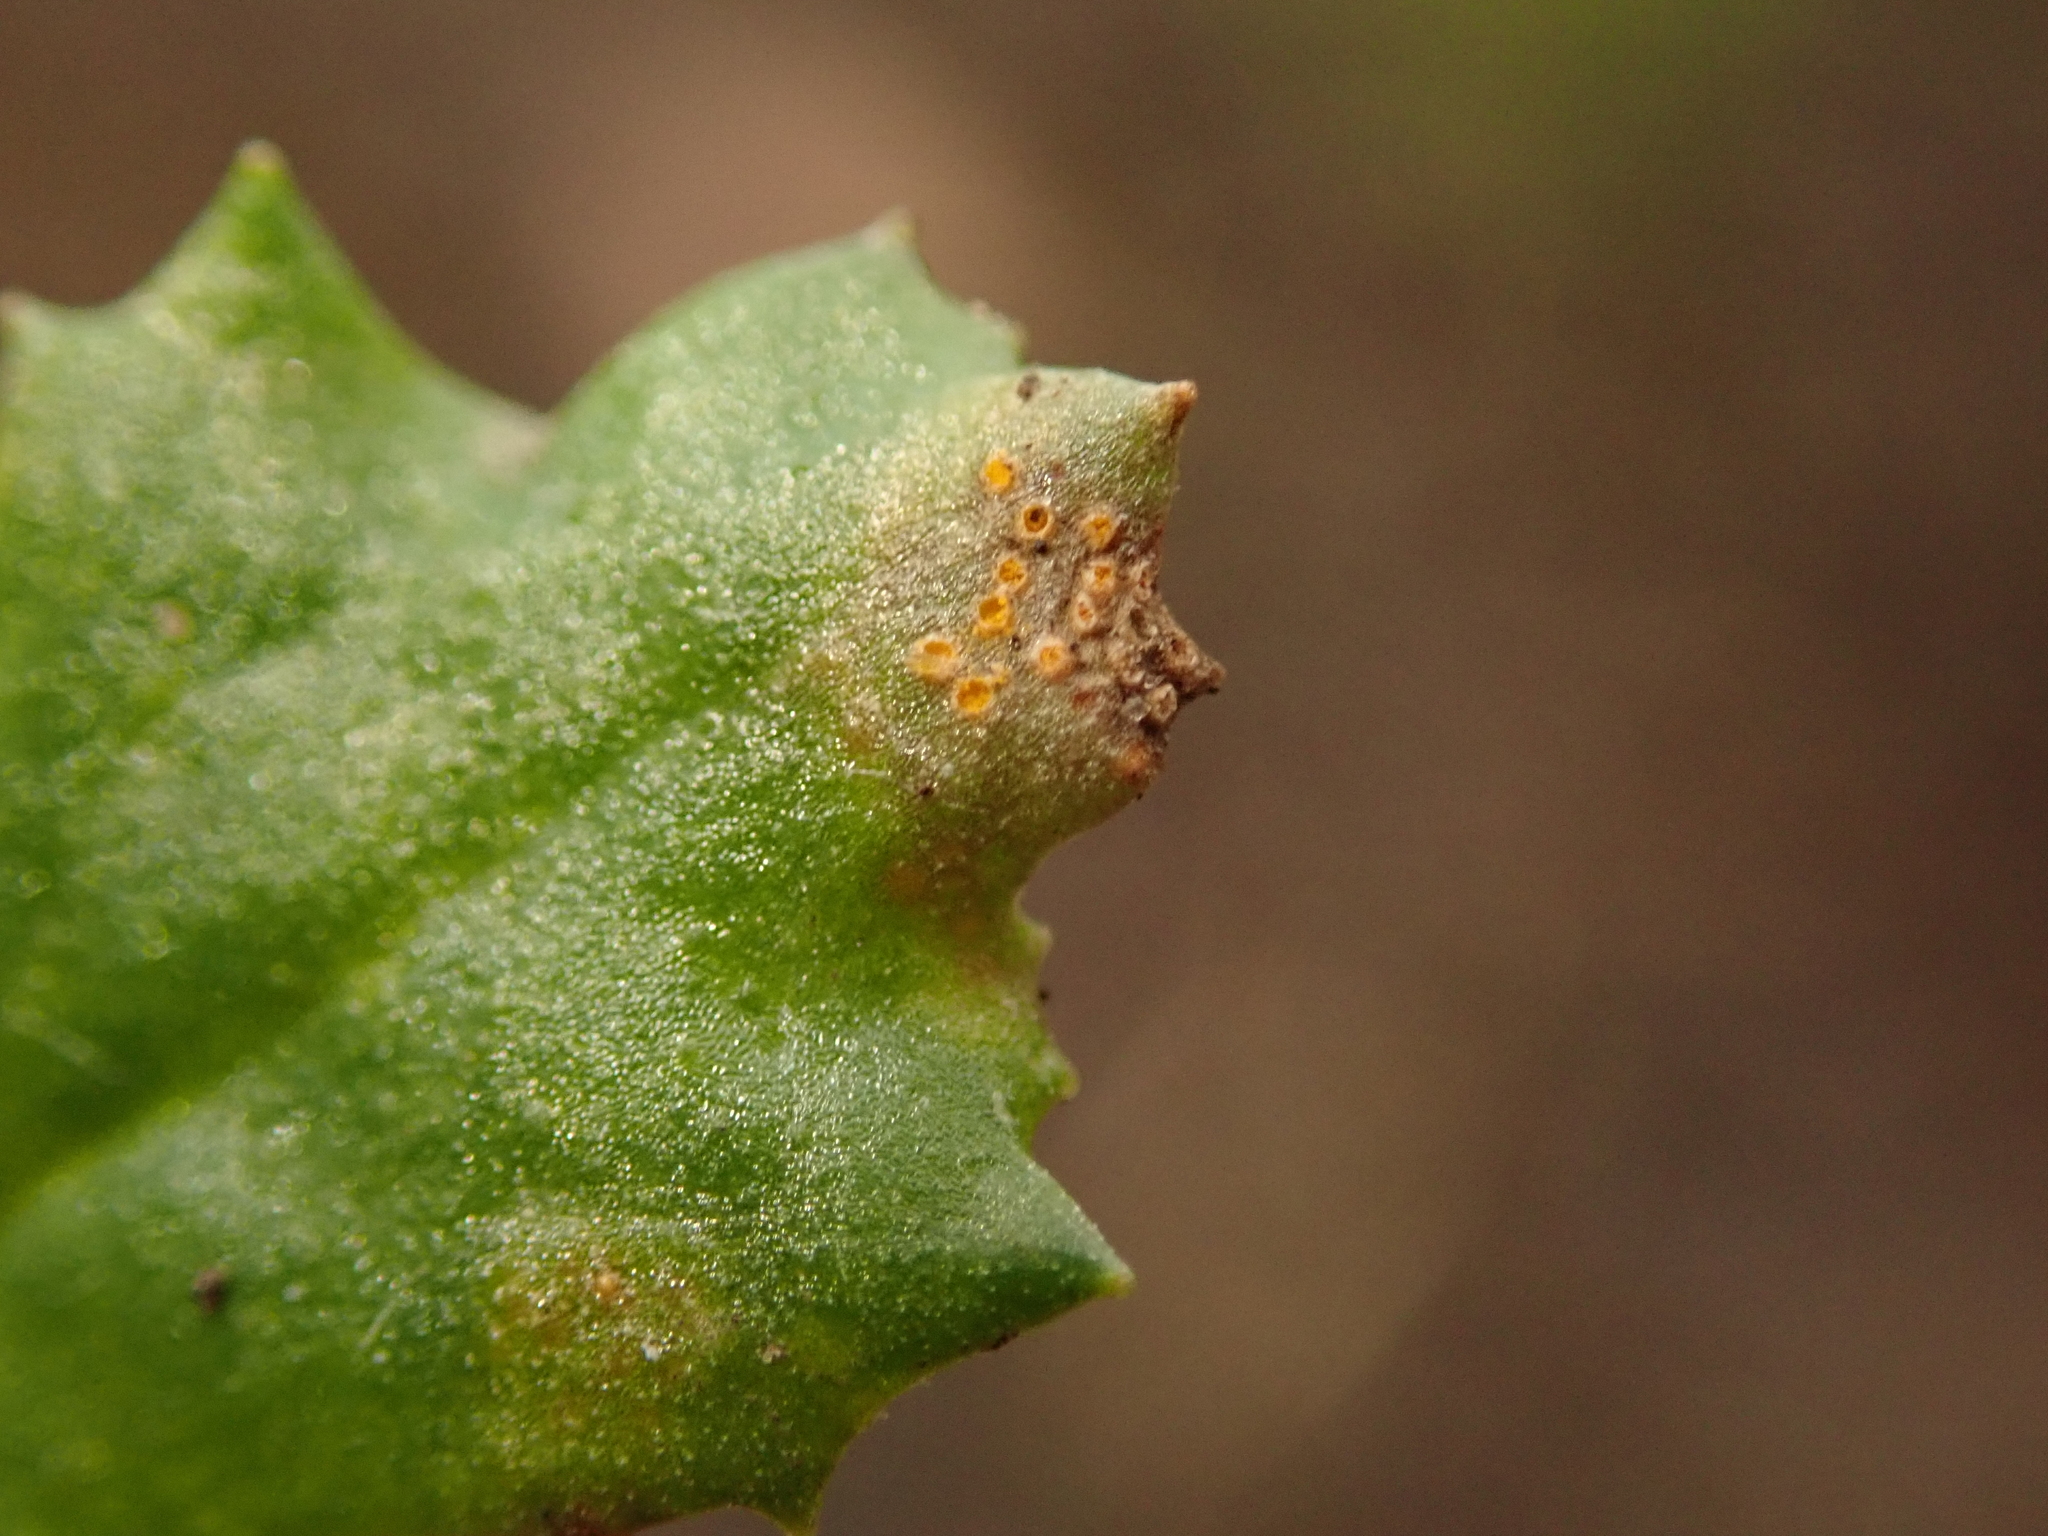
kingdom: Fungi
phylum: Basidiomycota
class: Pucciniomycetes
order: Pucciniales
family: Pucciniaceae
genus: Puccinia
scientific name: Puccinia lagenophorae
